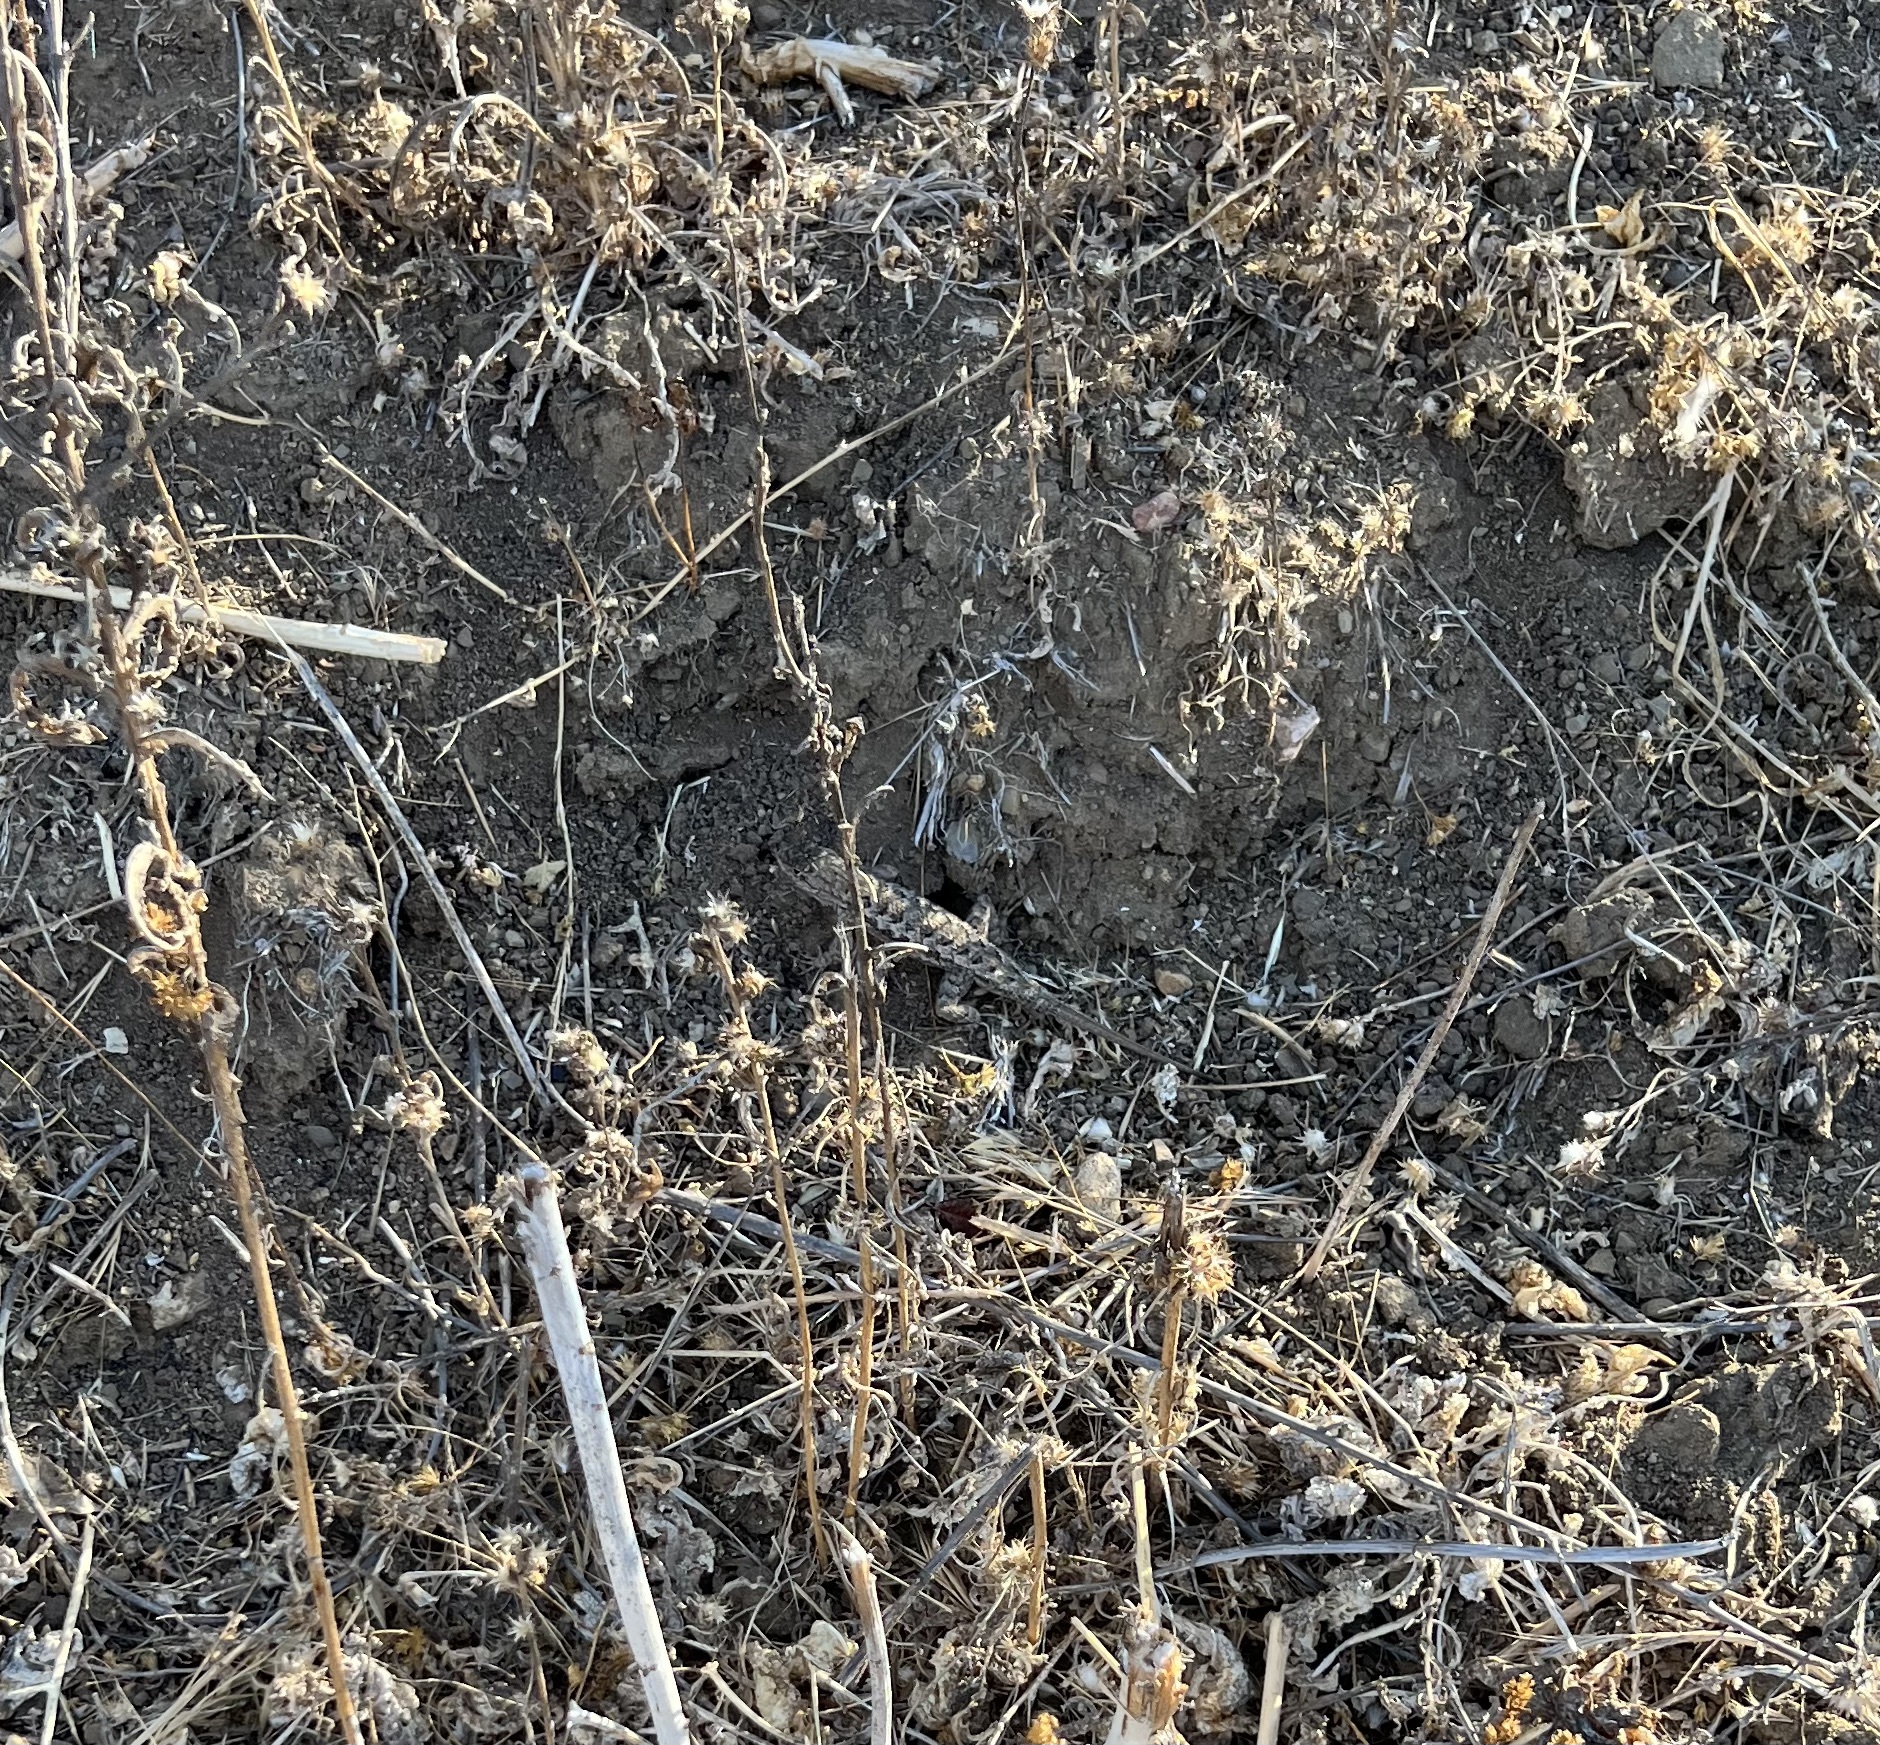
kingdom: Animalia
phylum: Chordata
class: Squamata
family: Phrynosomatidae
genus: Sceloporus
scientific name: Sceloporus occidentalis
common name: Western fence lizard
